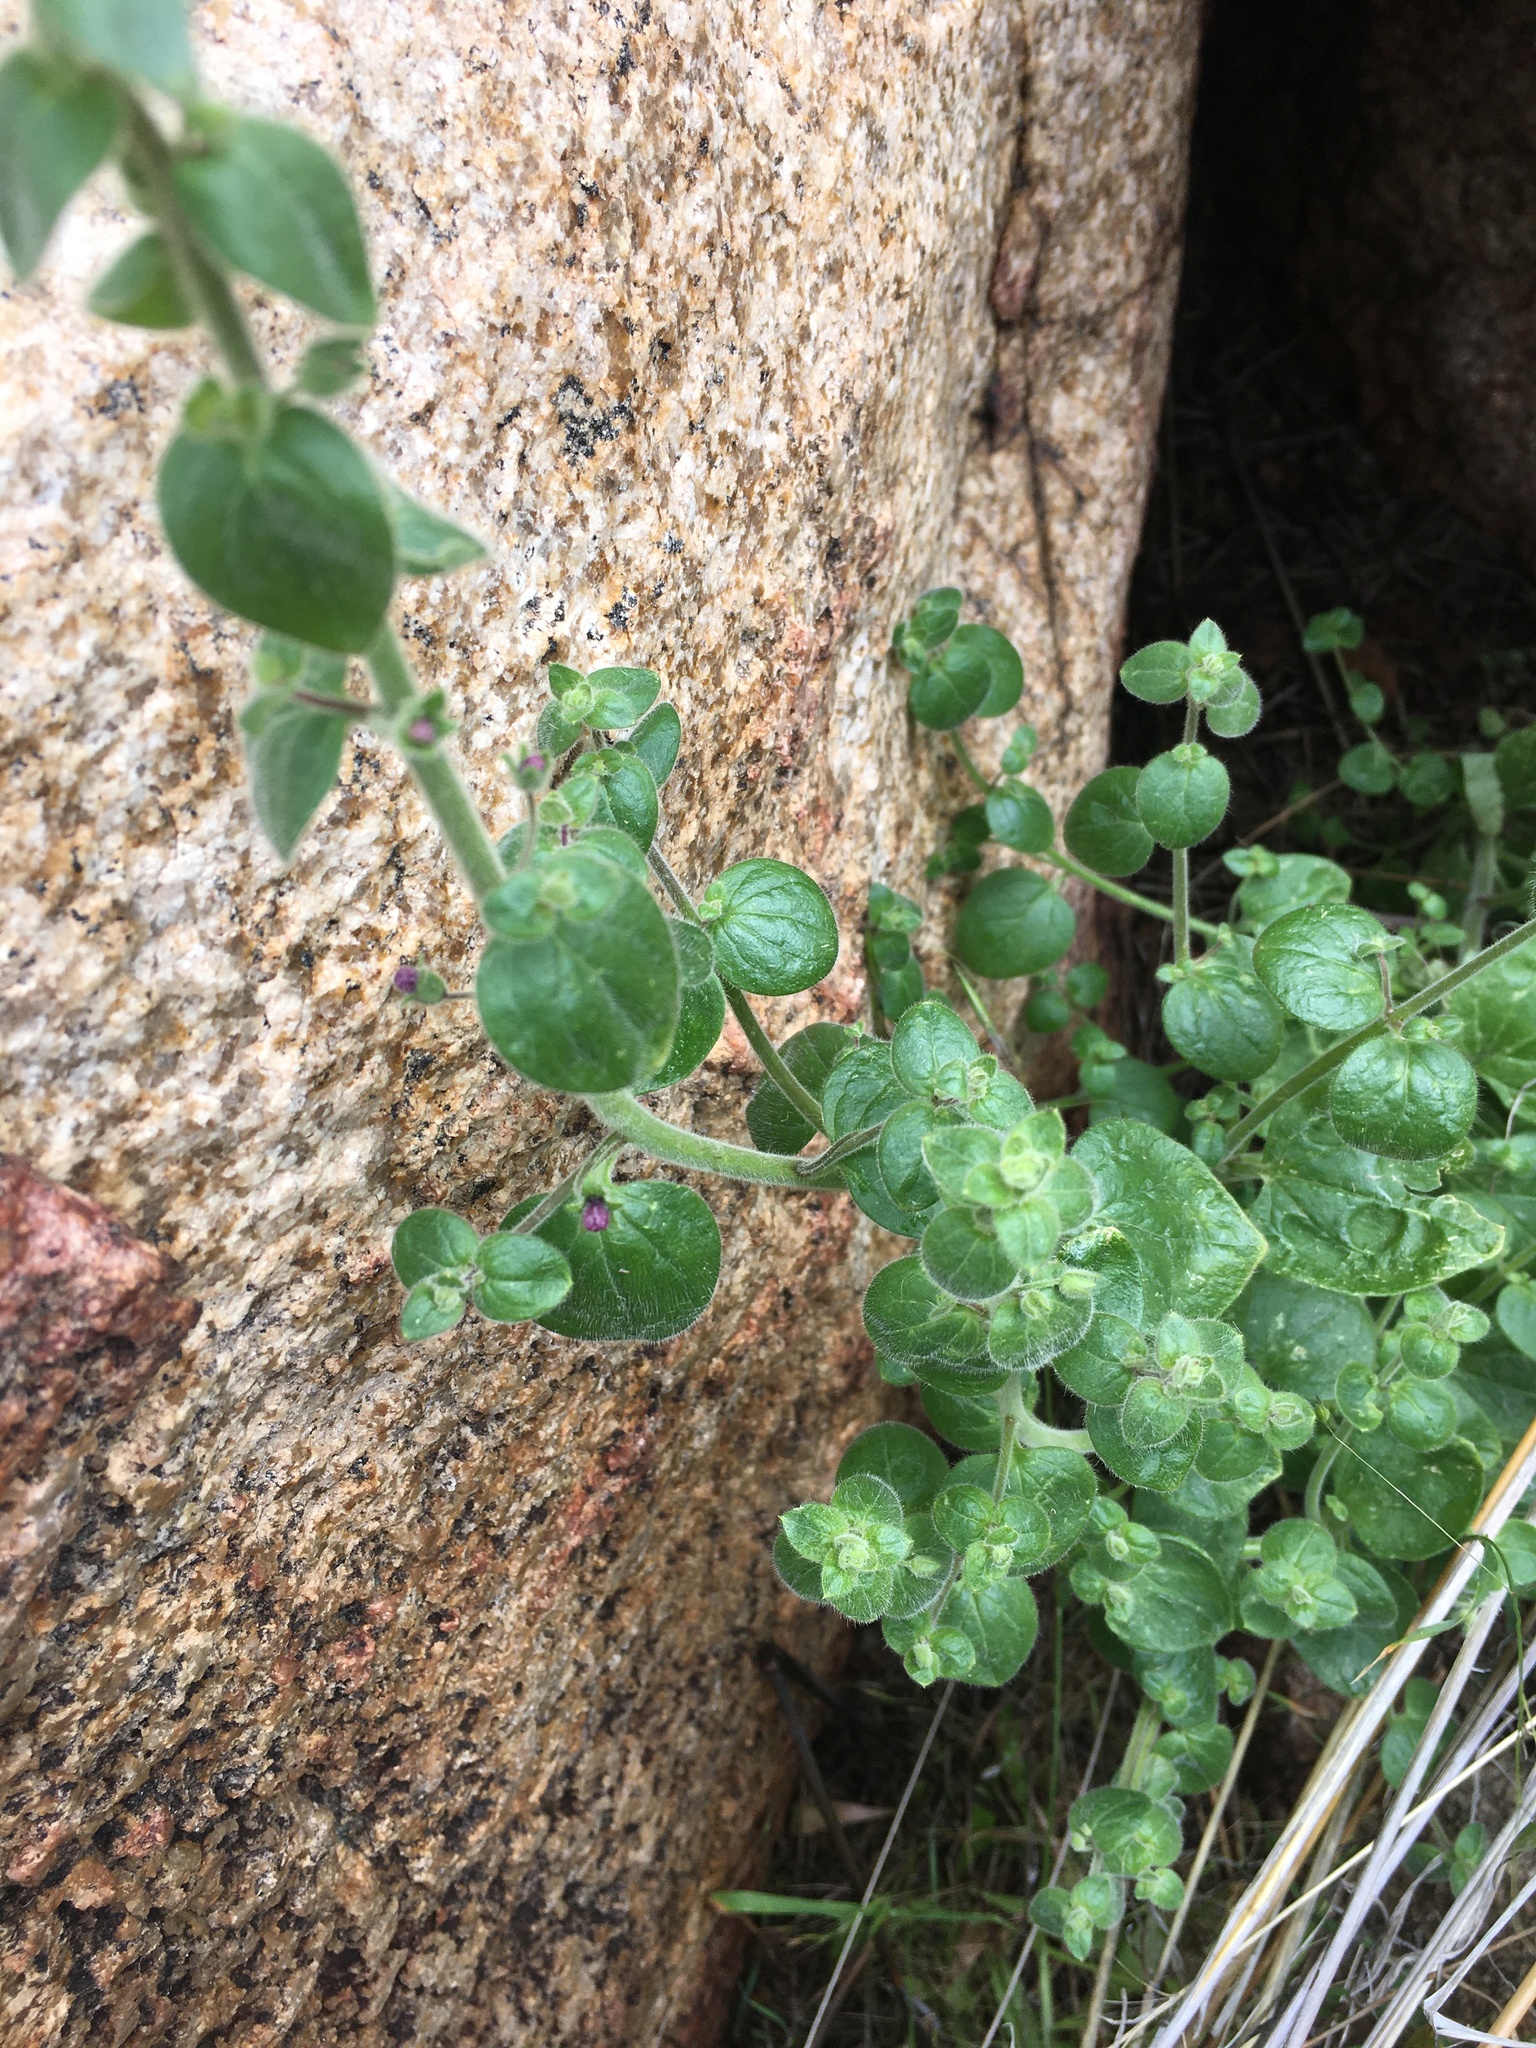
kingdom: Plantae
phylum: Tracheophyta
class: Magnoliopsida
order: Lamiales
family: Plantaginaceae
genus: Sairocarpus
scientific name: Sairocarpus nuttallianus
